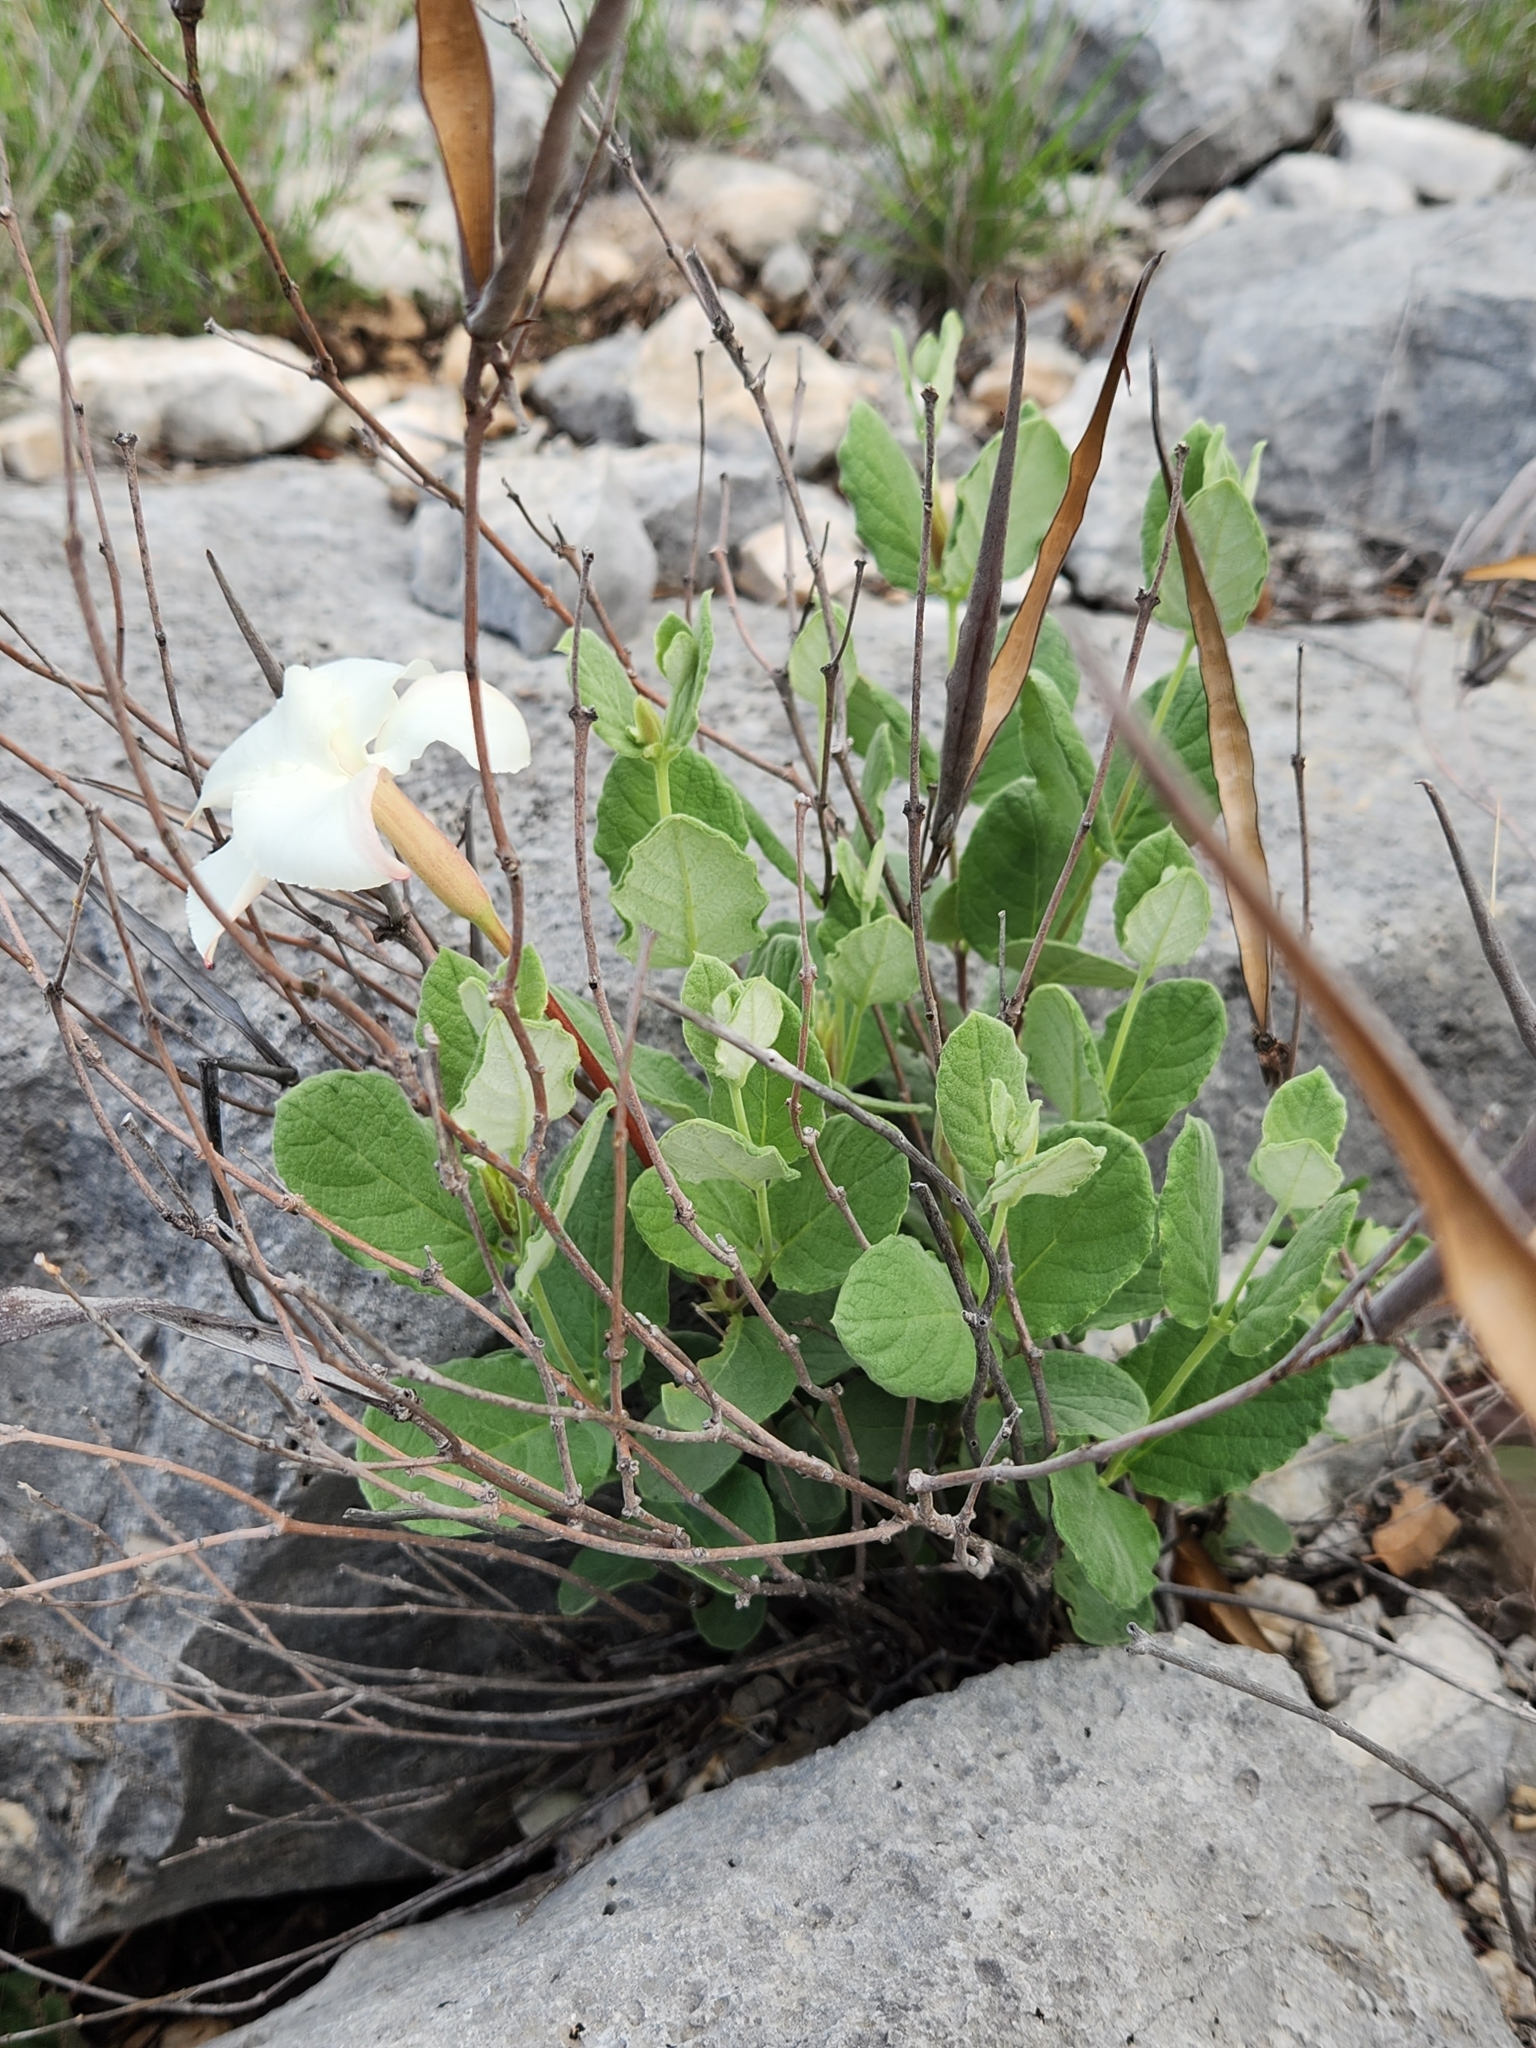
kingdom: Plantae
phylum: Tracheophyta
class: Magnoliopsida
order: Gentianales
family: Apocynaceae
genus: Mandevilla
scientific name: Mandevilla macrosiphon
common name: Plateau rocktrumpet
